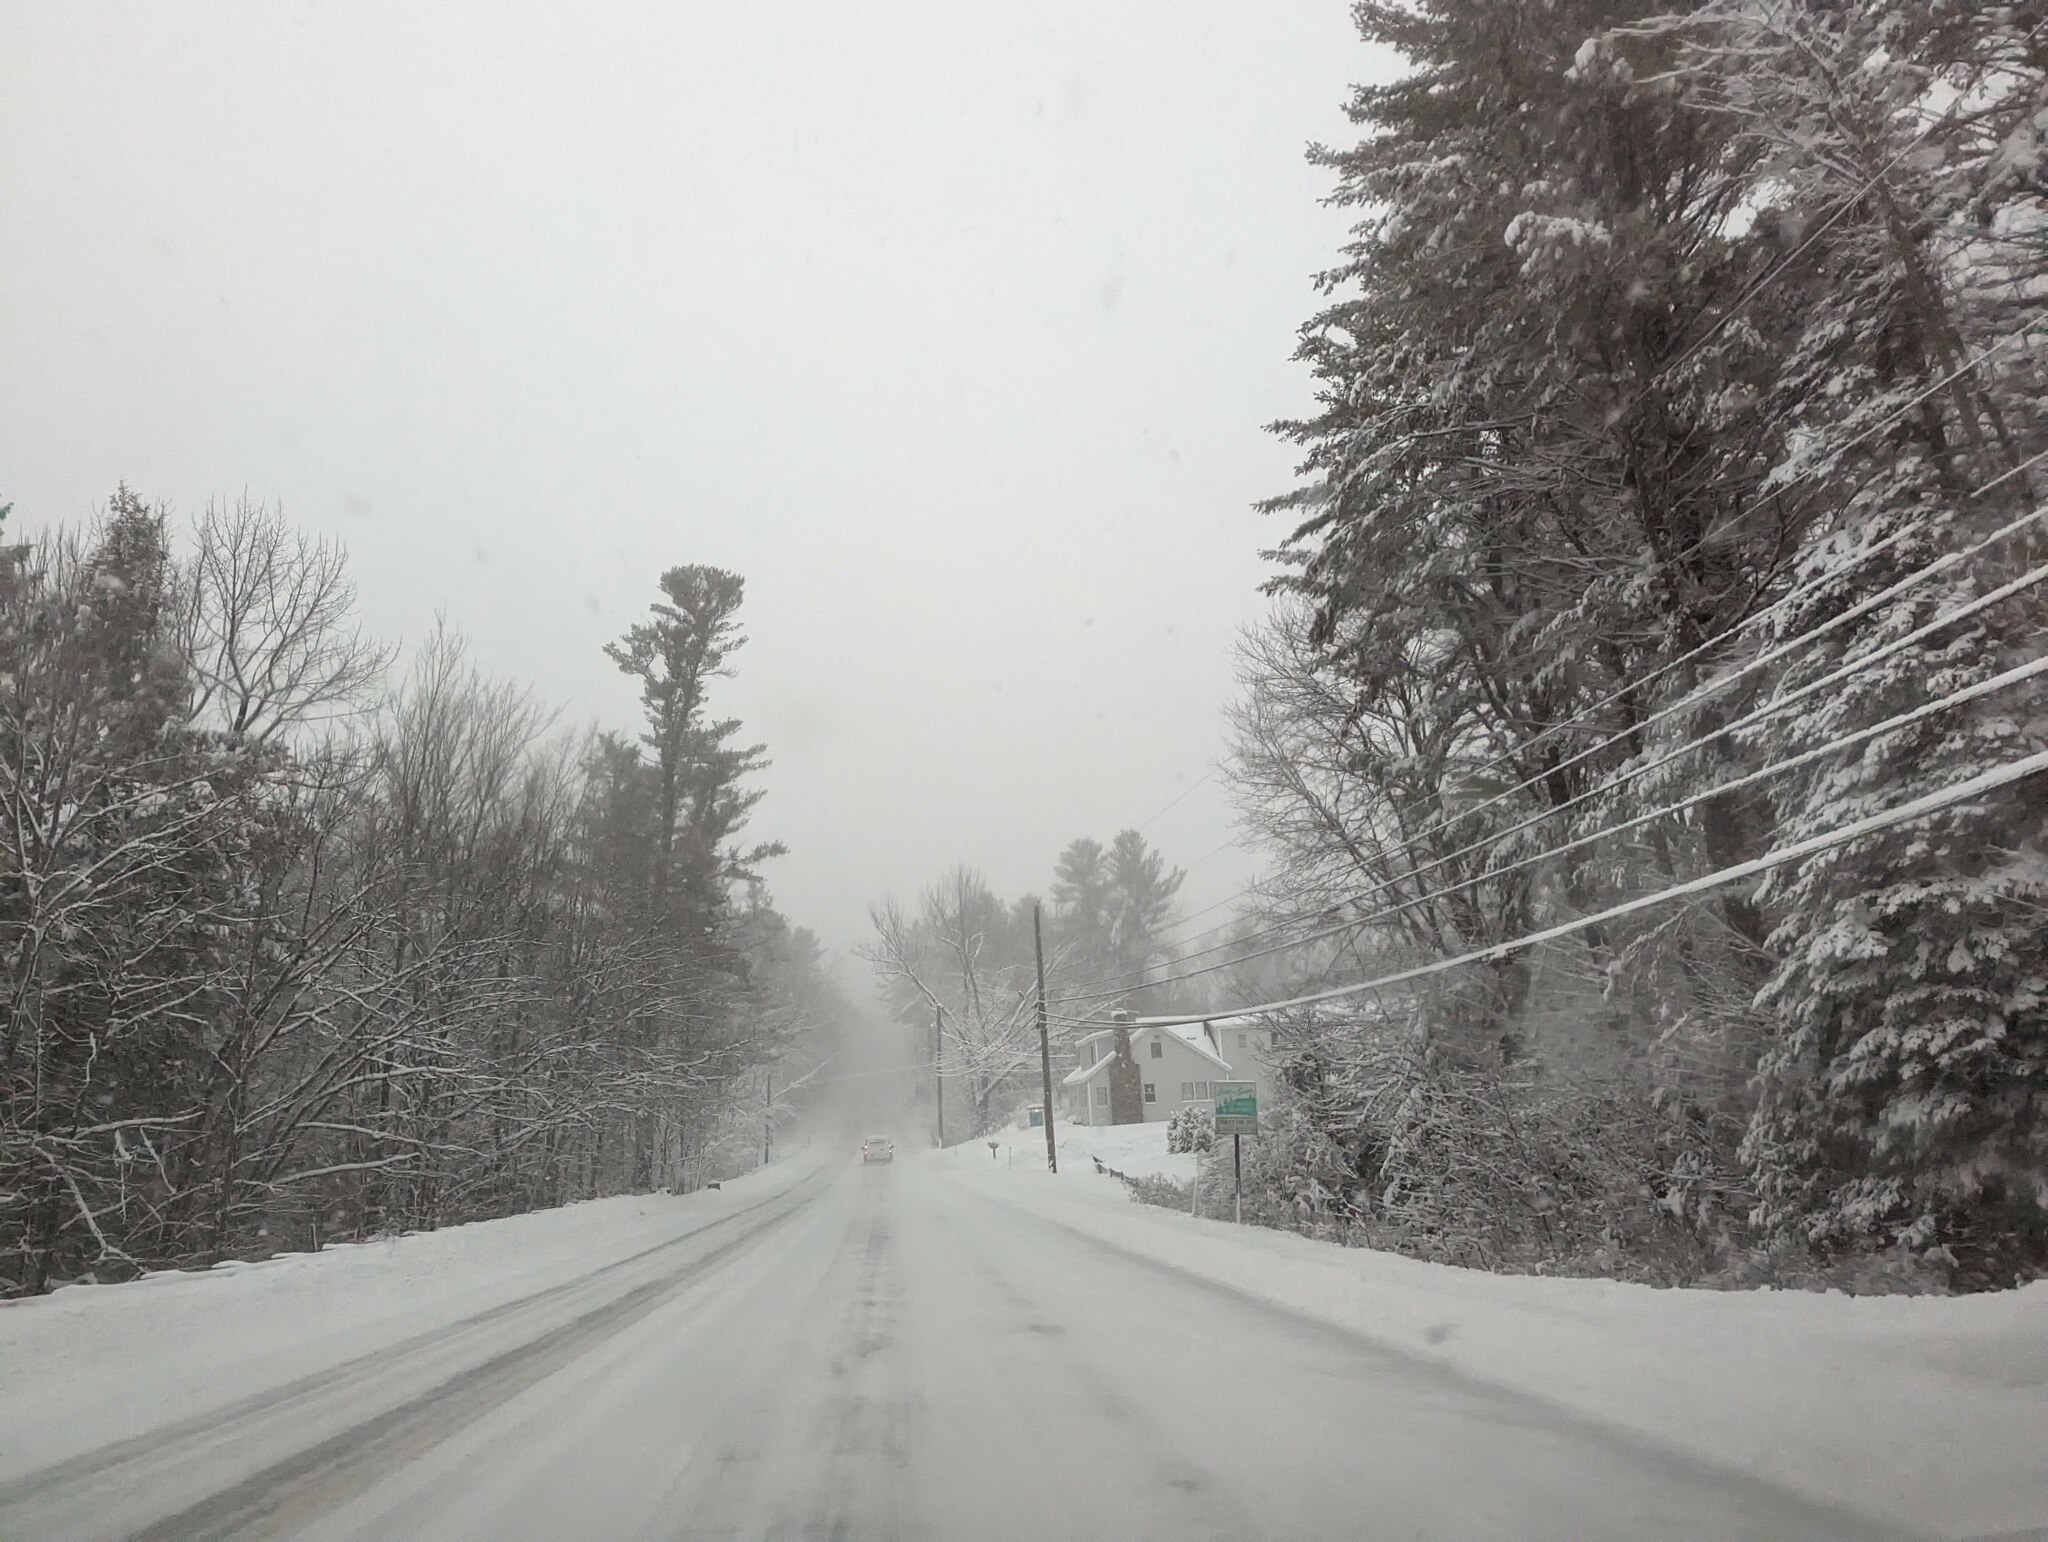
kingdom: Plantae
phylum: Tracheophyta
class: Pinopsida
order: Pinales
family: Pinaceae
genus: Pinus
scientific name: Pinus strobus
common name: Weymouth pine
